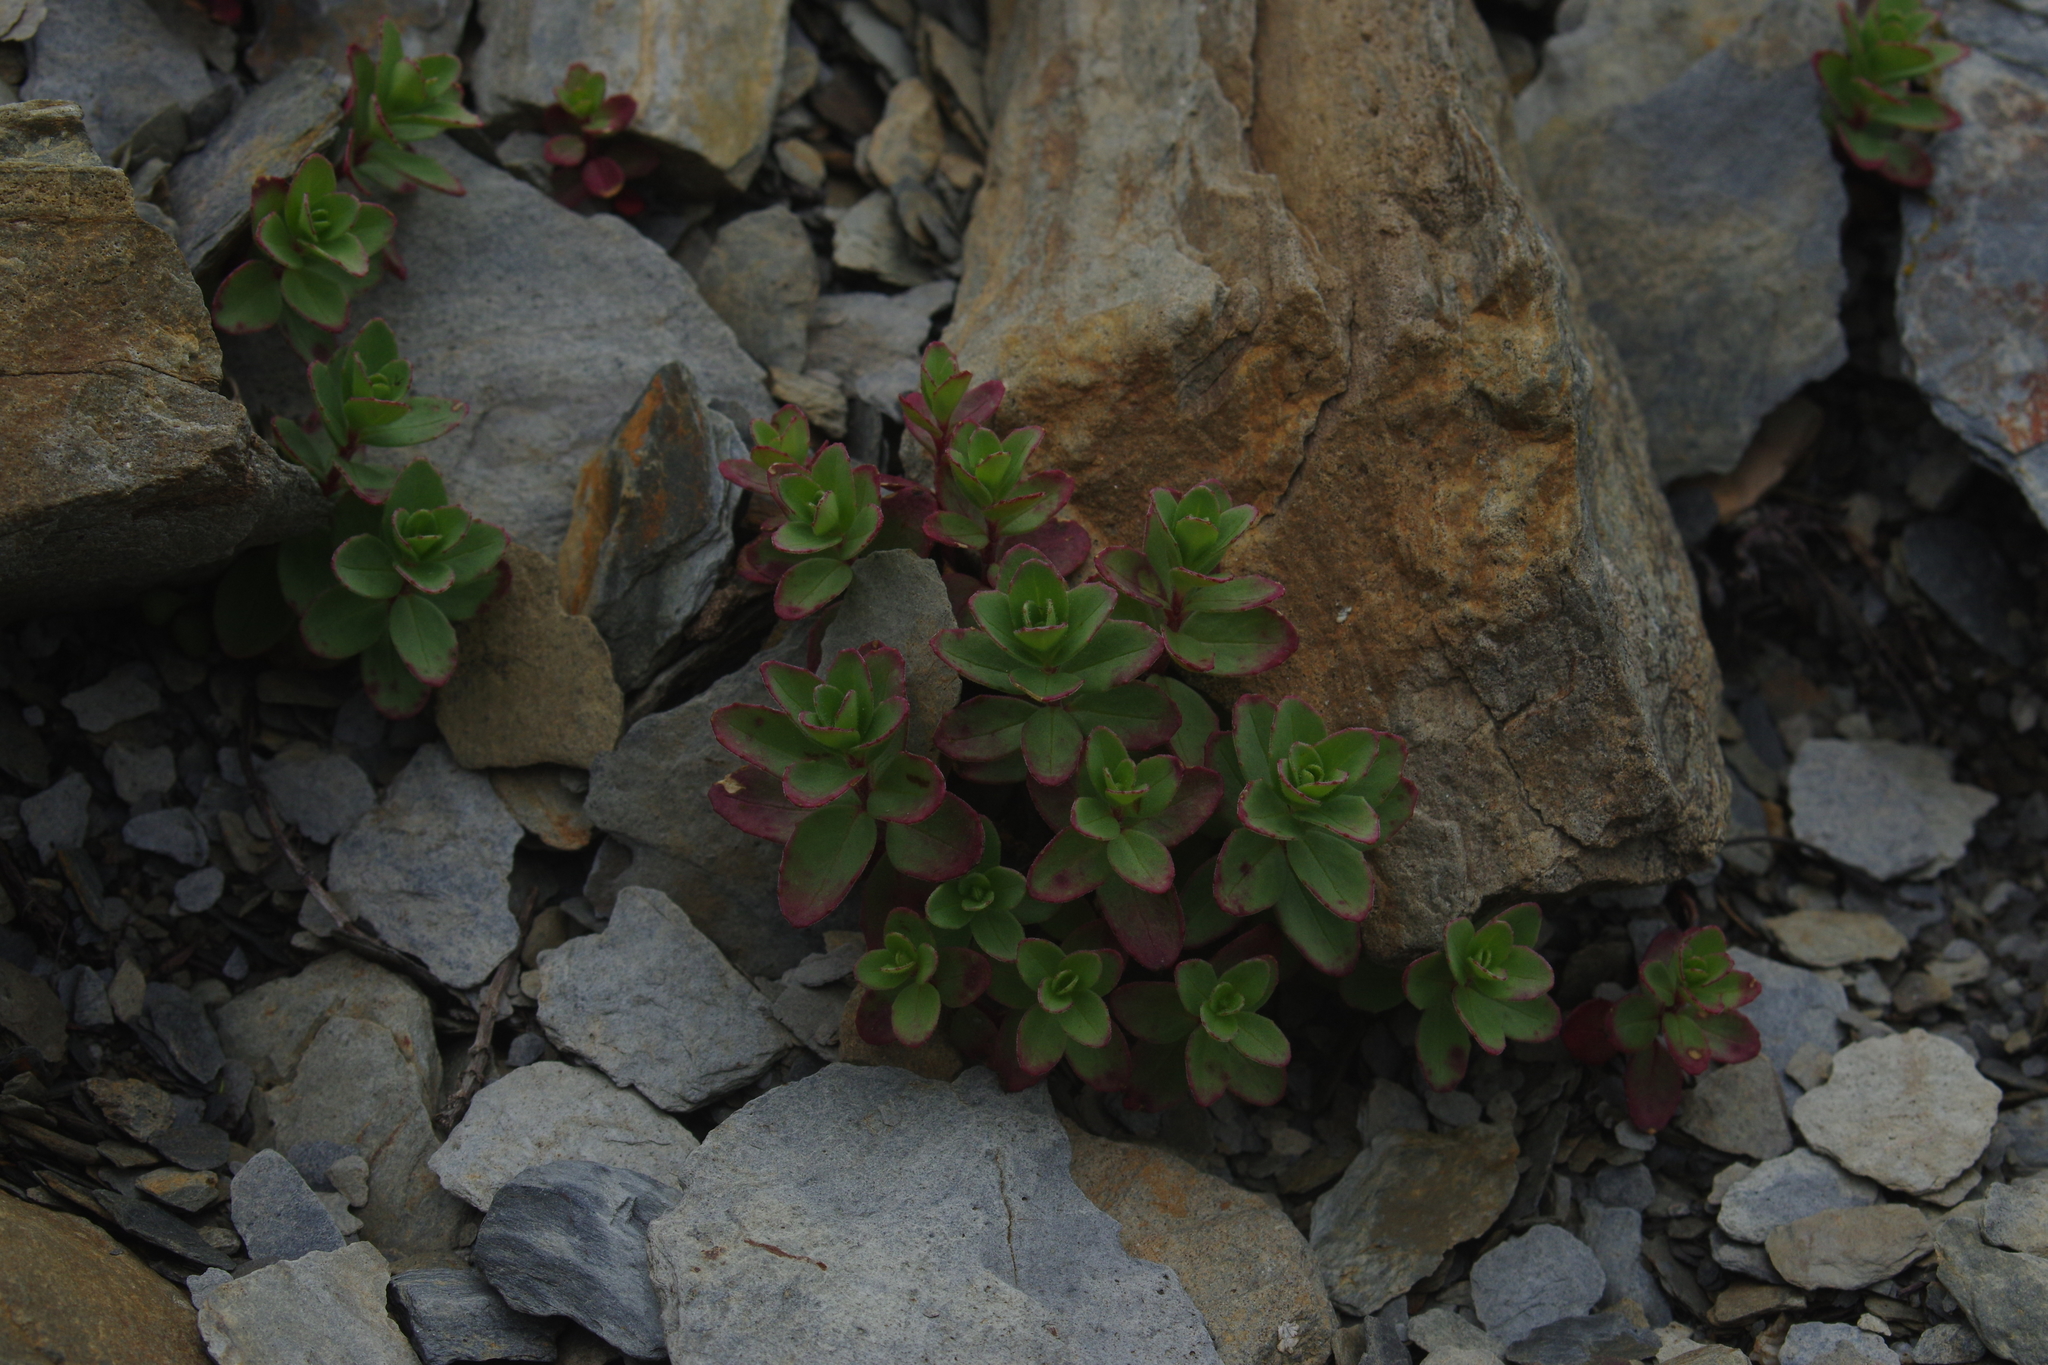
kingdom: Plantae
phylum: Tracheophyta
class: Magnoliopsida
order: Myrtales
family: Onagraceae
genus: Epilobium
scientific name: Epilobium nankotaizanense
